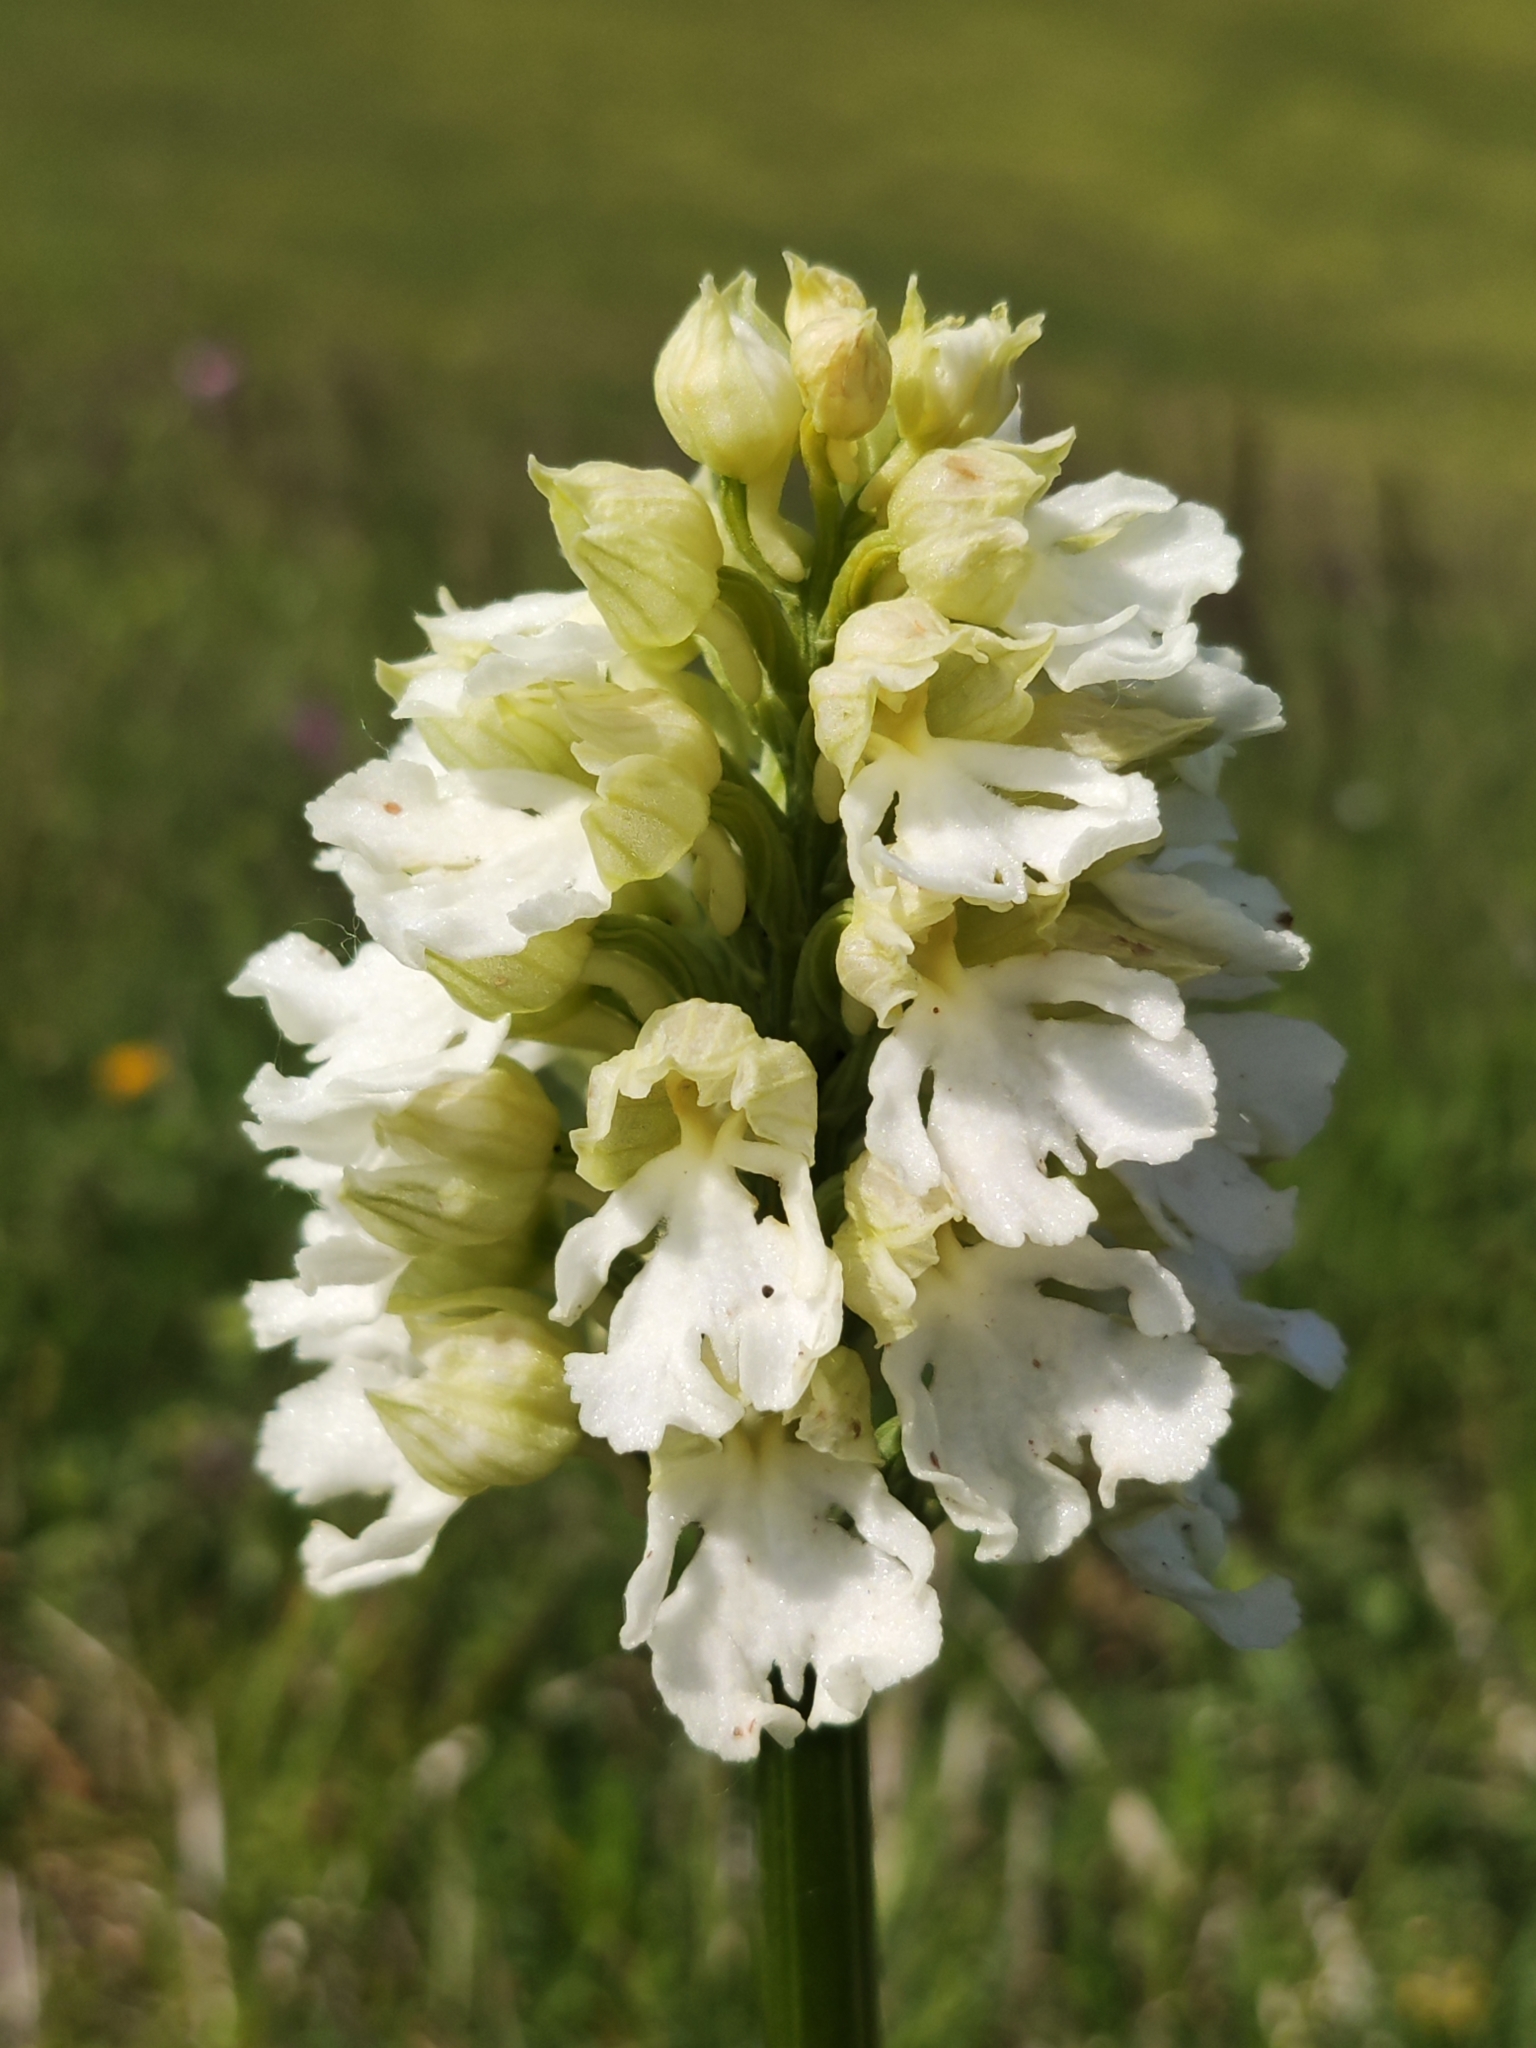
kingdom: Plantae
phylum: Tracheophyta
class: Liliopsida
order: Asparagales
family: Orchidaceae
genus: Orchis
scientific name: Orchis purpurea
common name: Lady orchid
